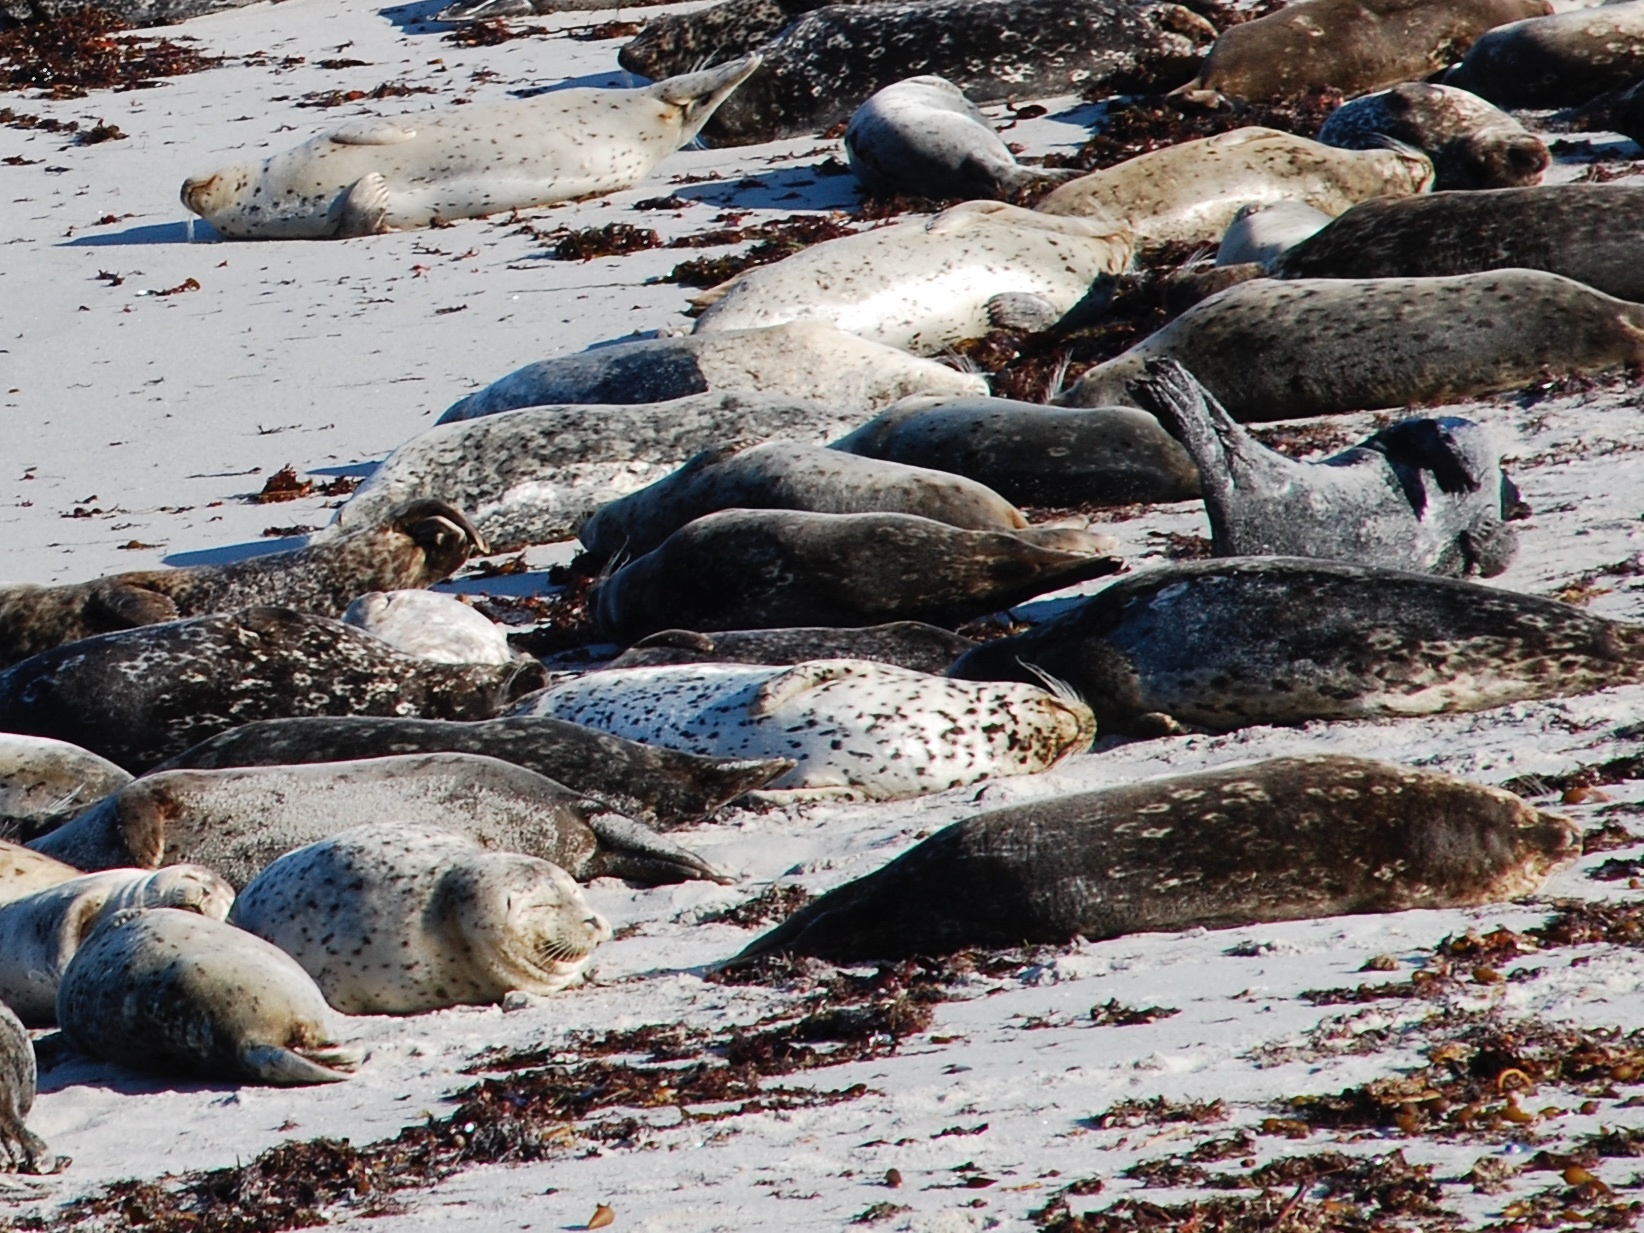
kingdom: Animalia
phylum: Chordata
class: Mammalia
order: Carnivora
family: Phocidae
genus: Phoca
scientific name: Phoca vitulina
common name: Harbor seal
